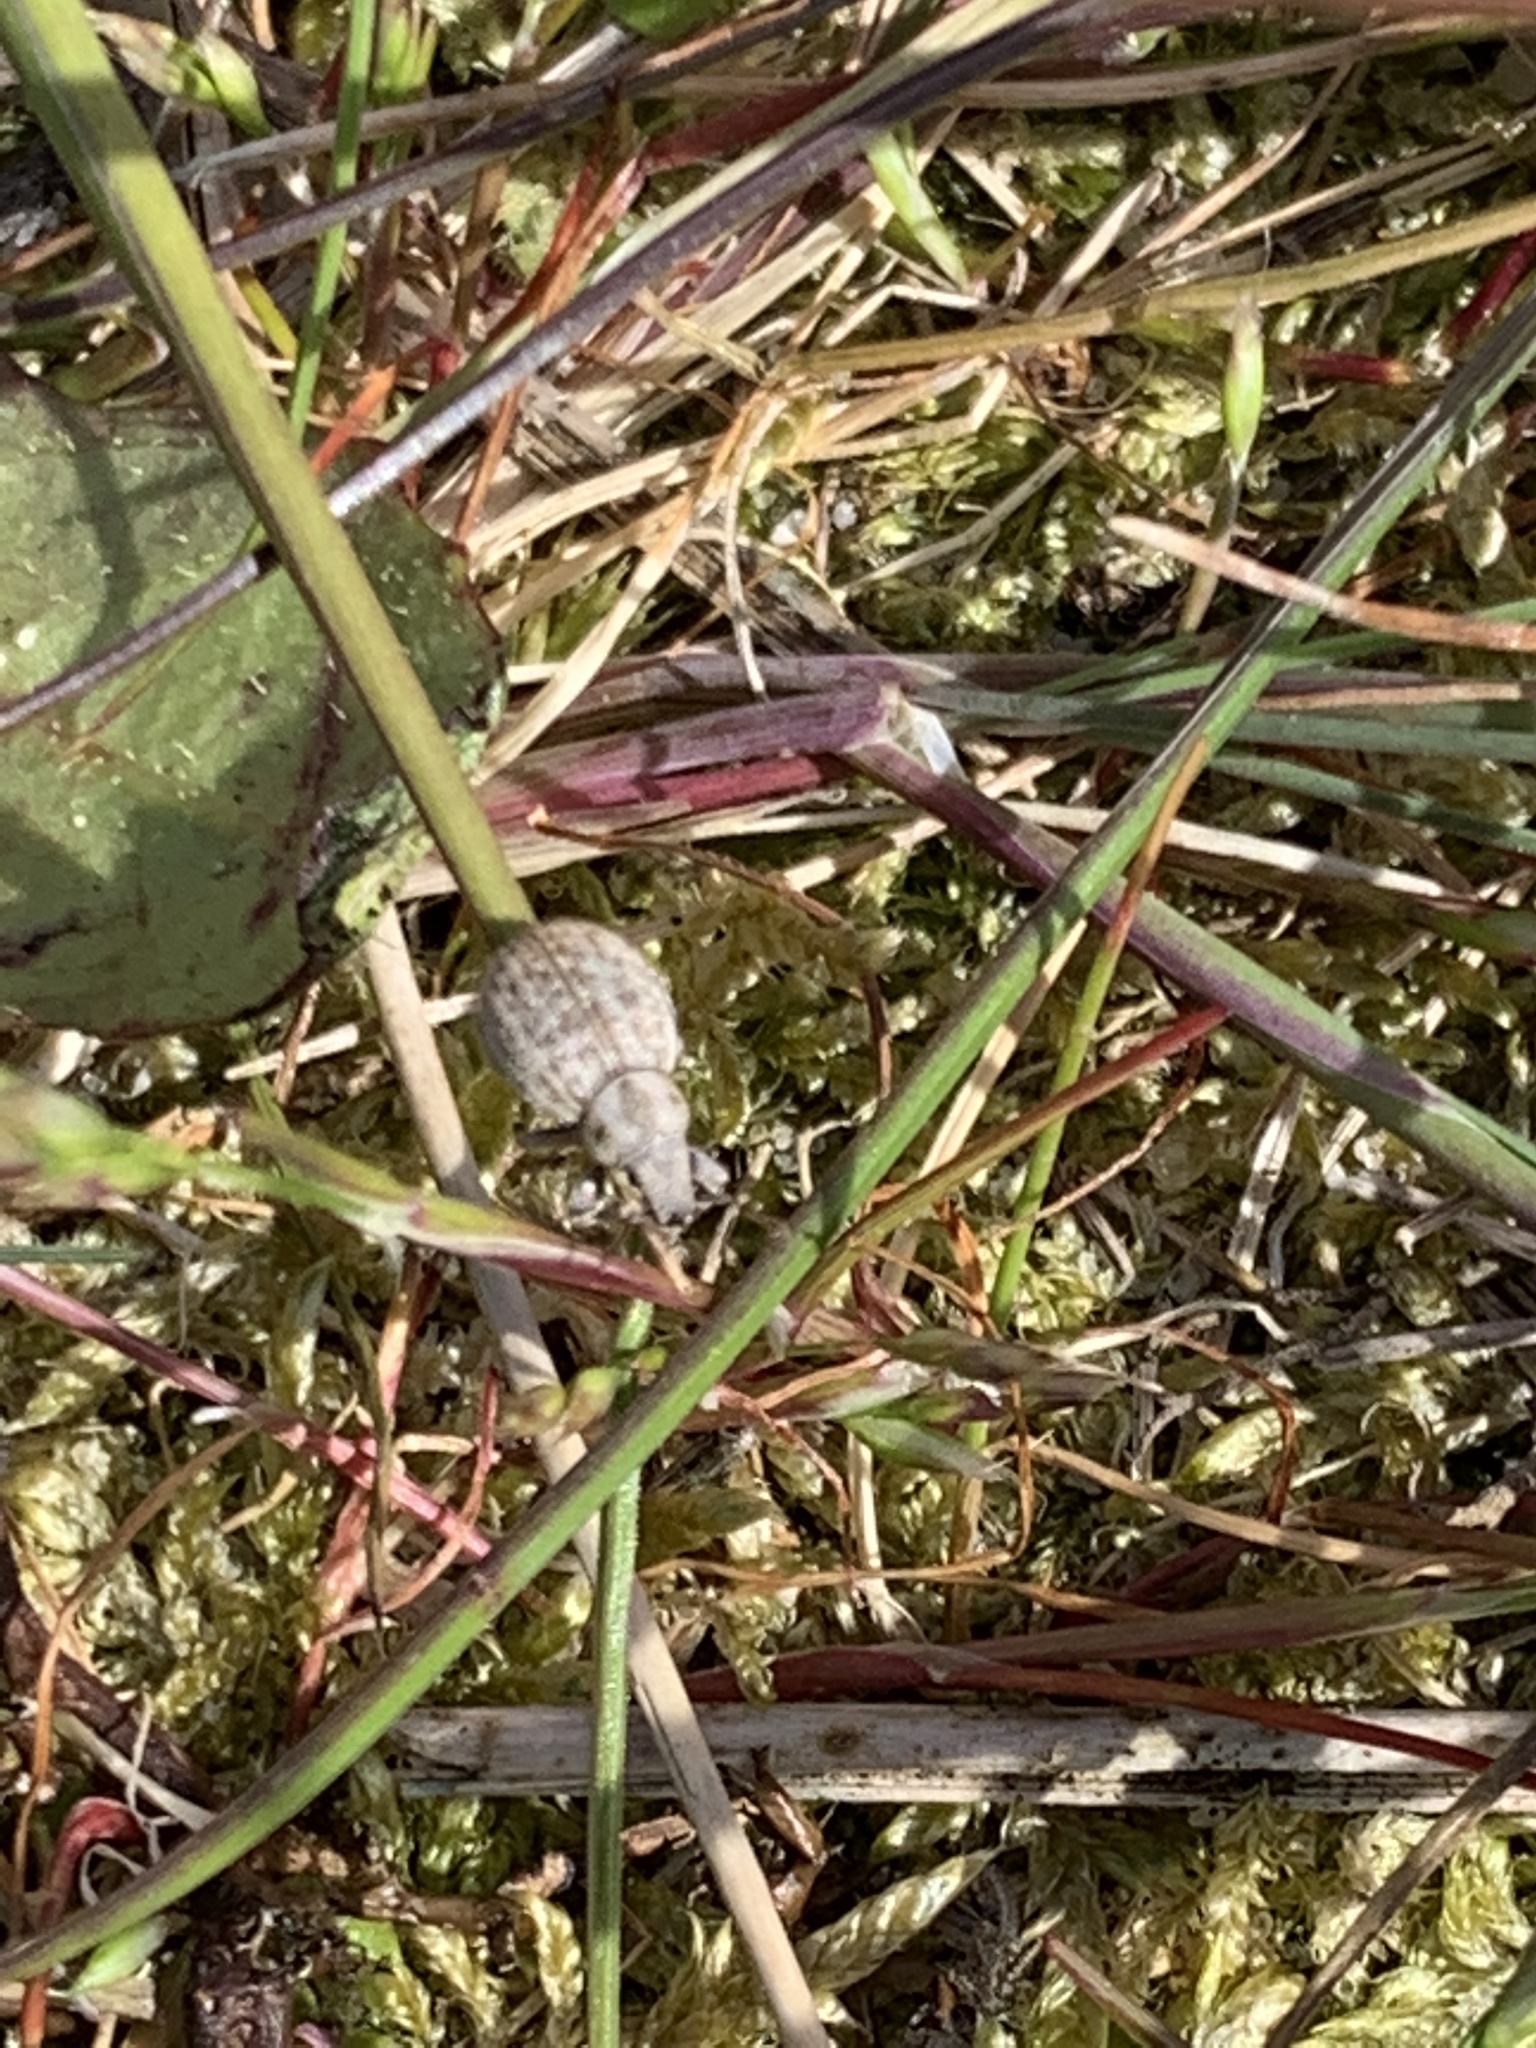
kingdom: Animalia
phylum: Arthropoda
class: Insecta
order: Coleoptera
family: Curculionidae
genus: Philopedon
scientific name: Philopedon plagiatum
